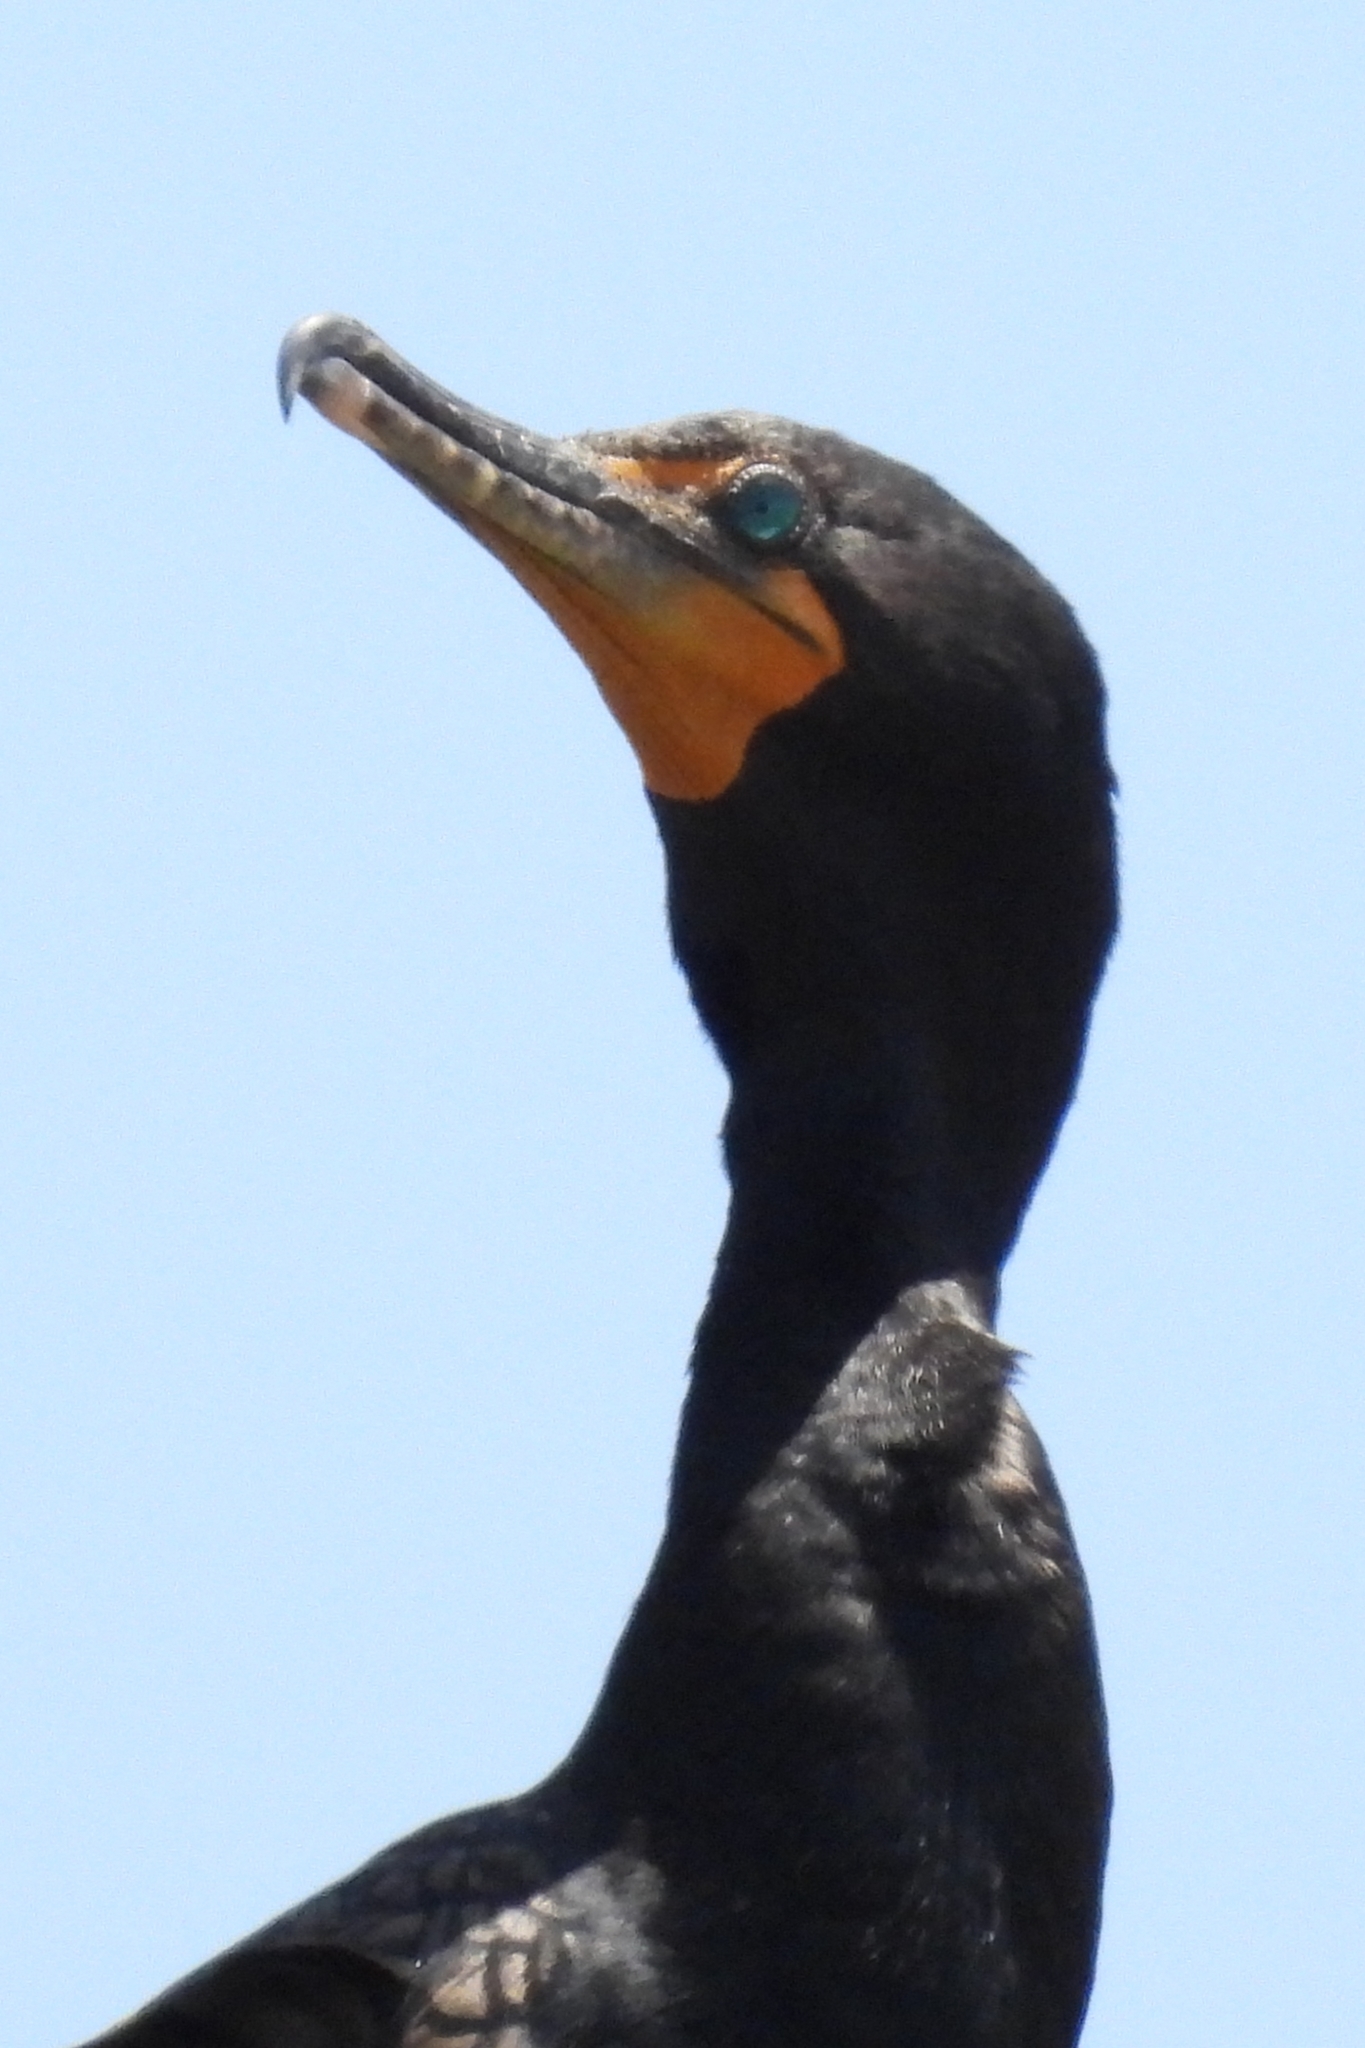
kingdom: Animalia
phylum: Chordata
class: Aves
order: Suliformes
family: Phalacrocoracidae
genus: Phalacrocorax
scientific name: Phalacrocorax auritus
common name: Double-crested cormorant
